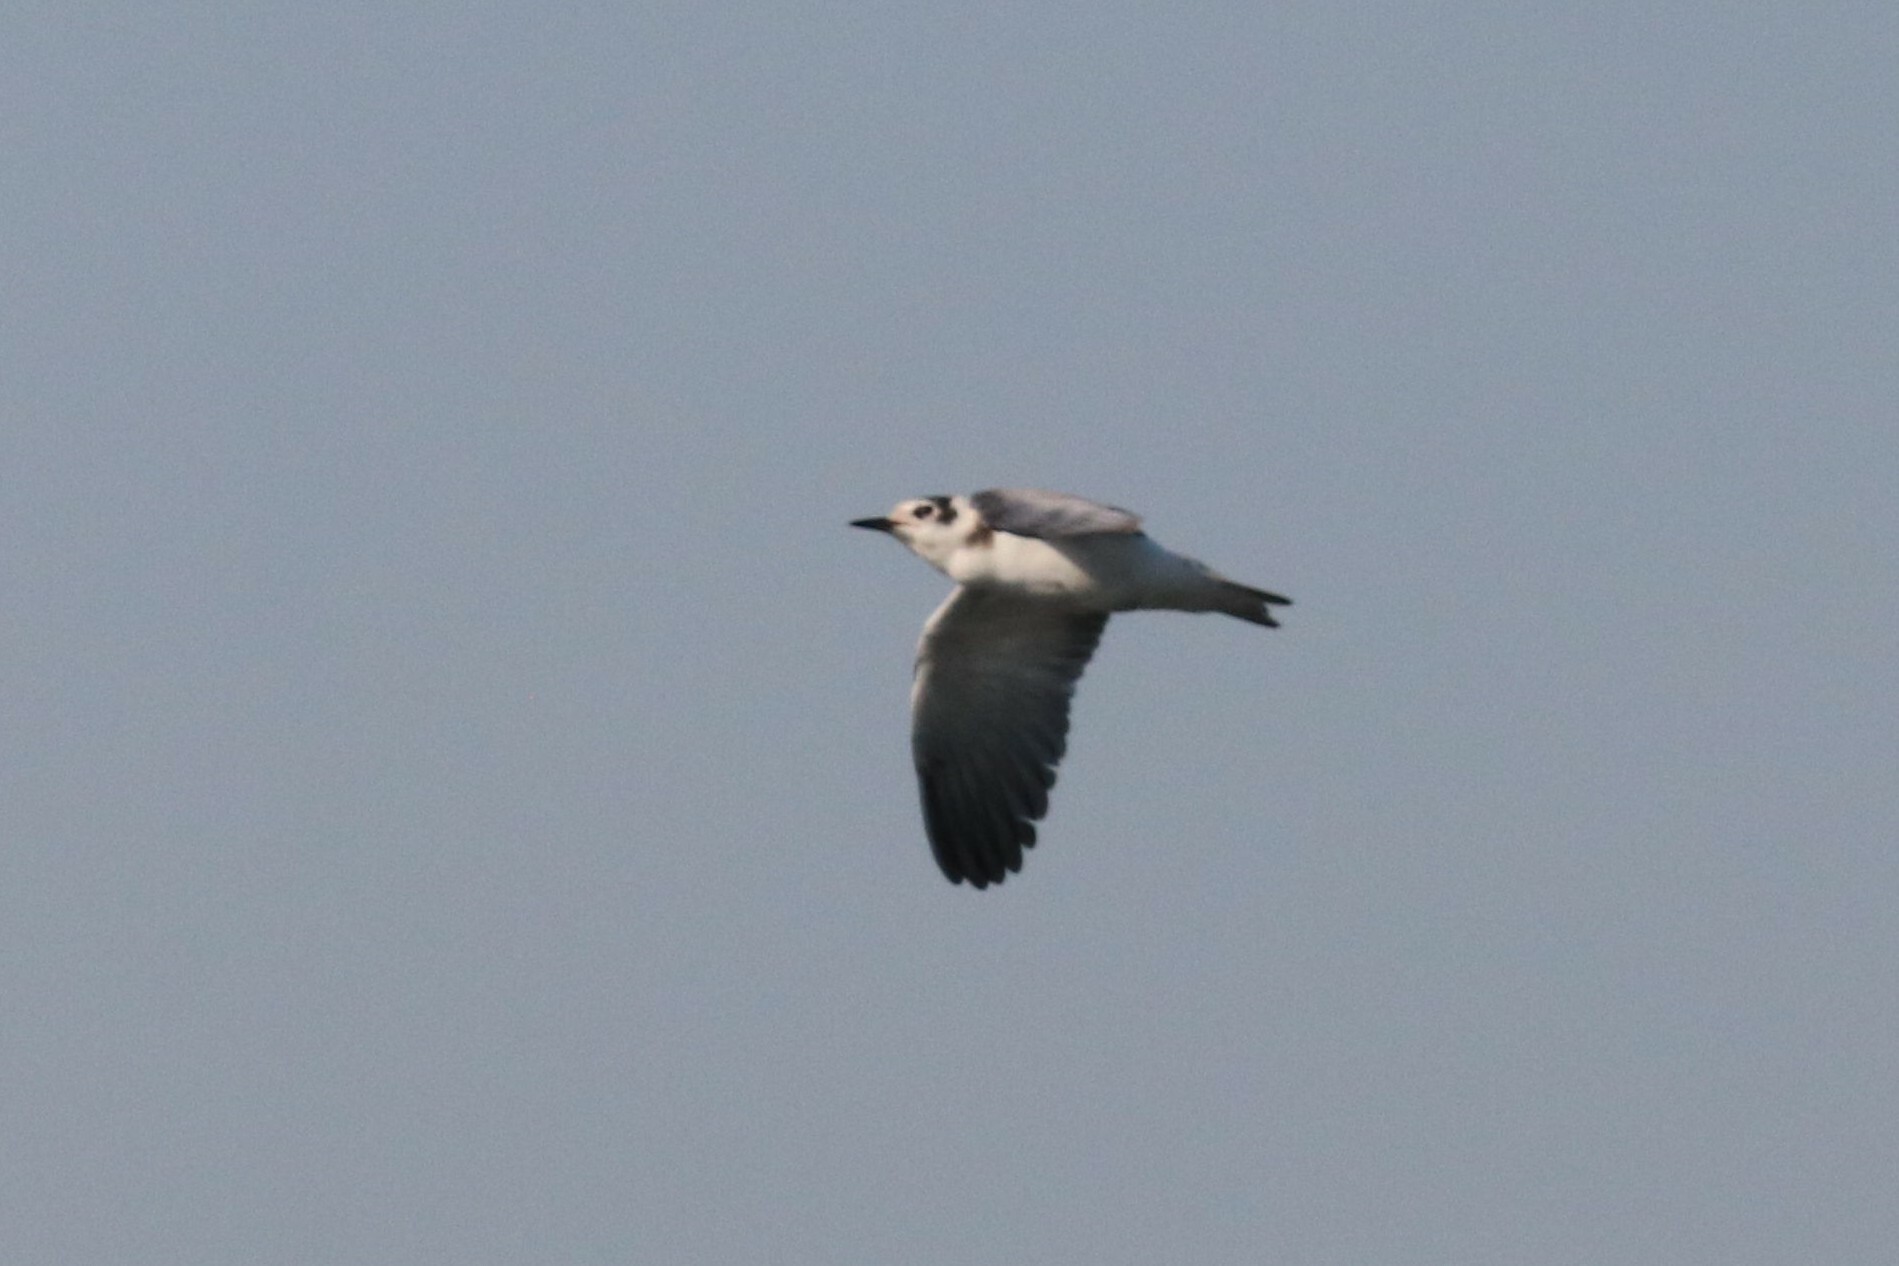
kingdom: Animalia
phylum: Chordata
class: Aves
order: Charadriiformes
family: Laridae
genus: Chlidonias
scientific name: Chlidonias niger
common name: Black tern
